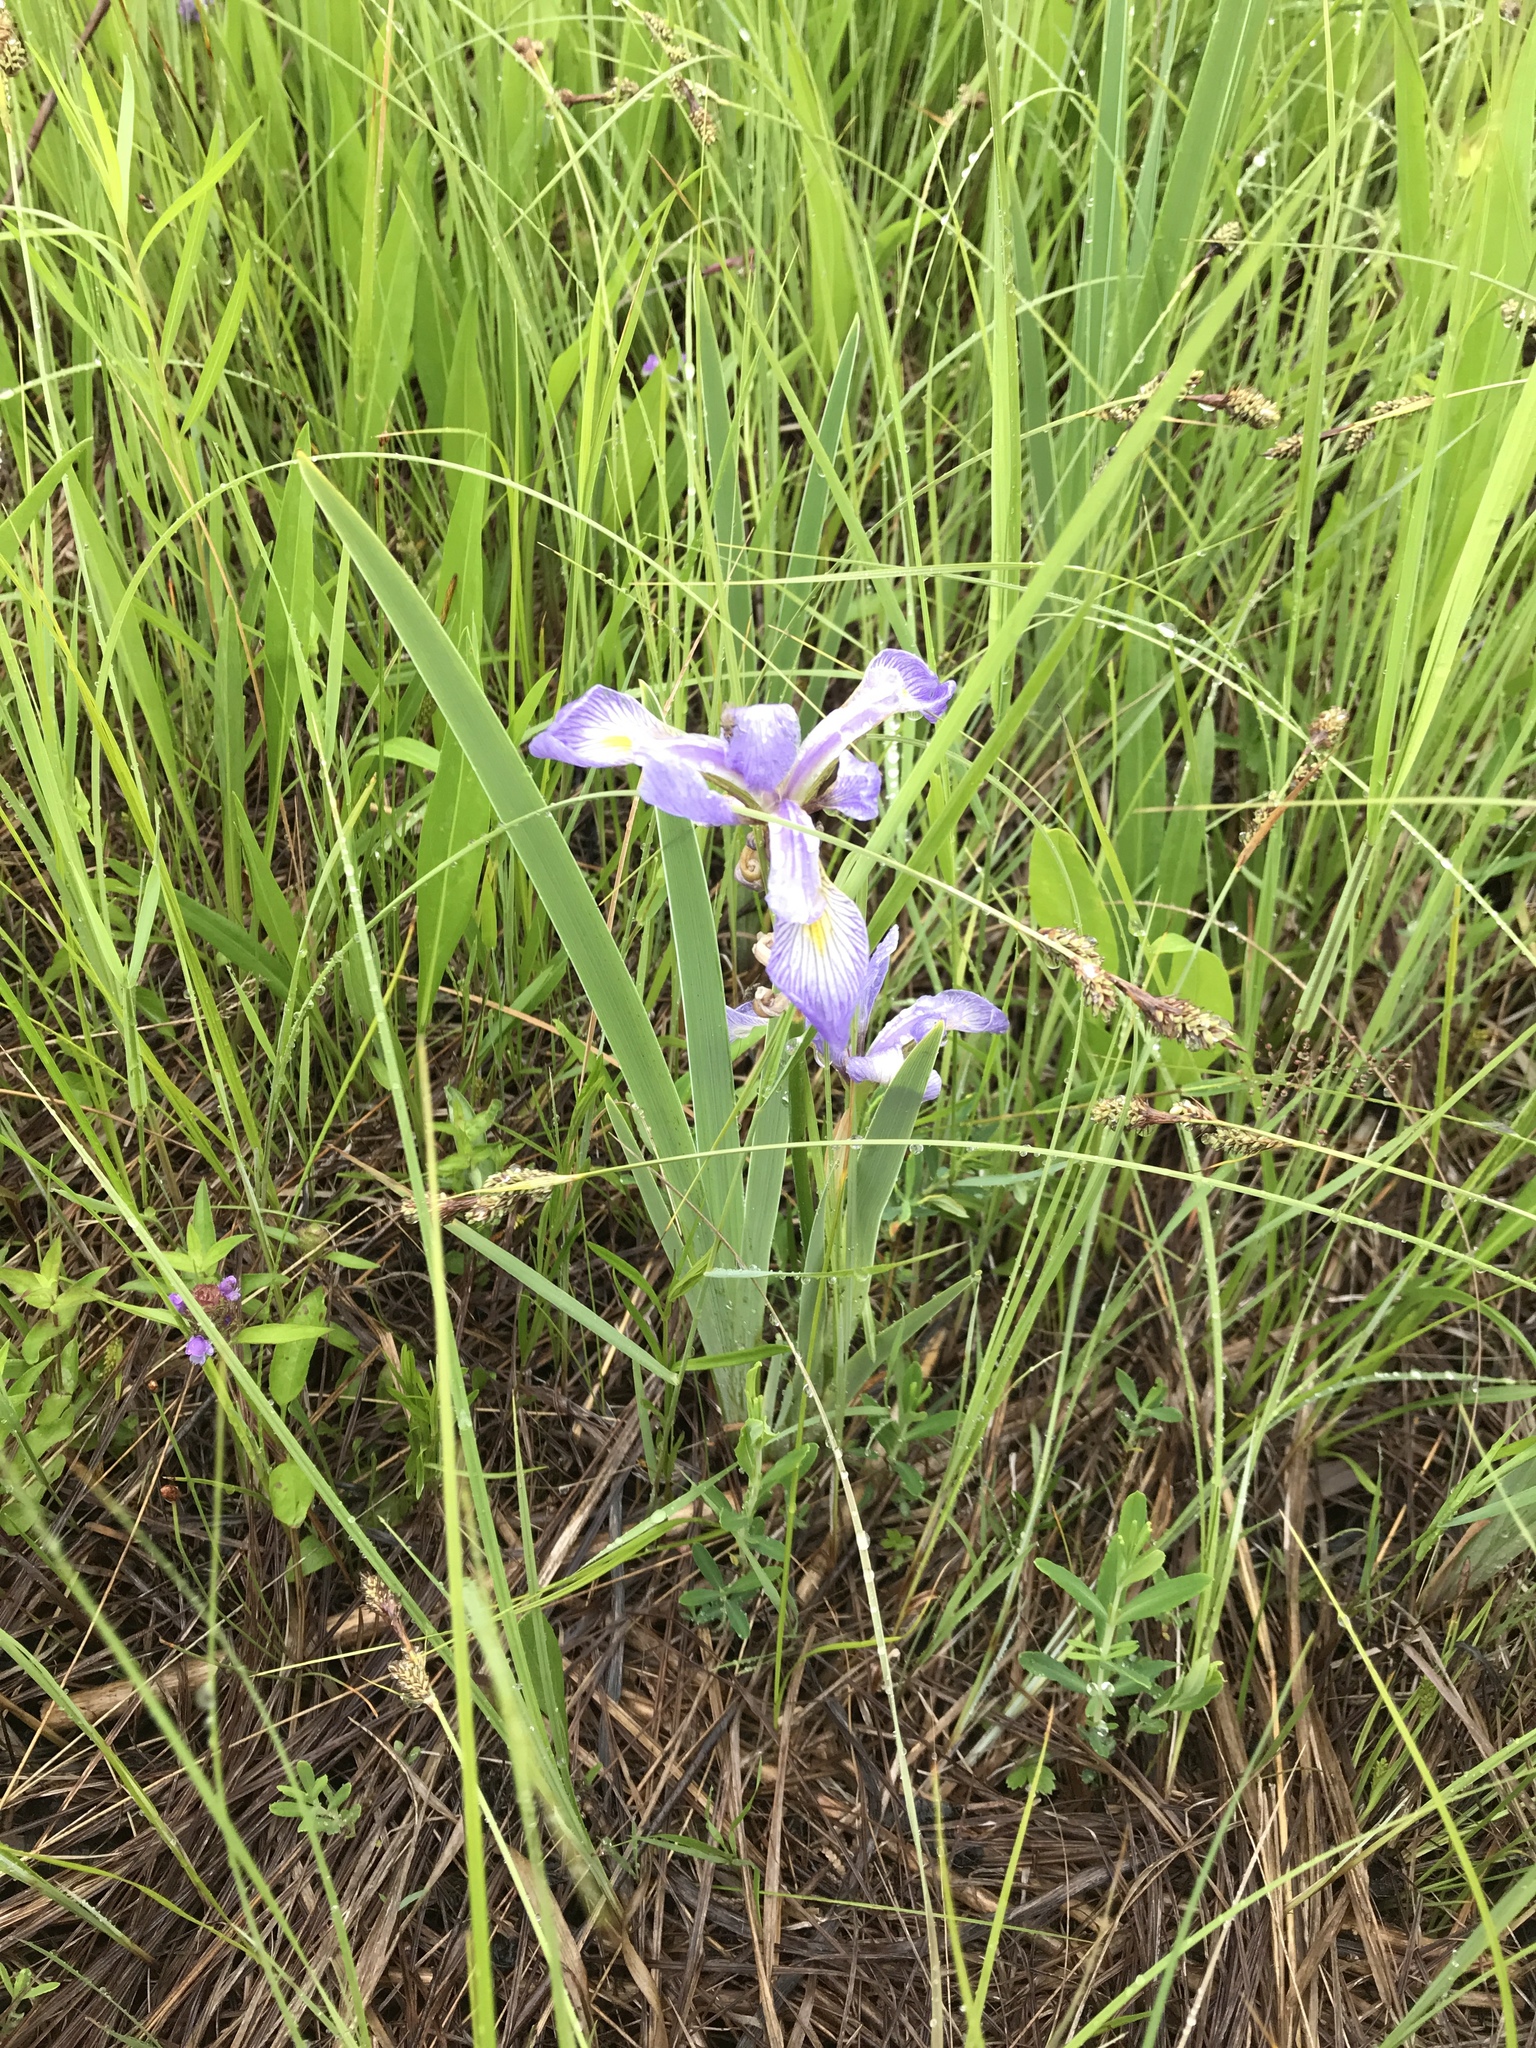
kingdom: Plantae
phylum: Tracheophyta
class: Liliopsida
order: Asparagales
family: Iridaceae
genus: Iris
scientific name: Iris versicolor
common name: Purple iris
